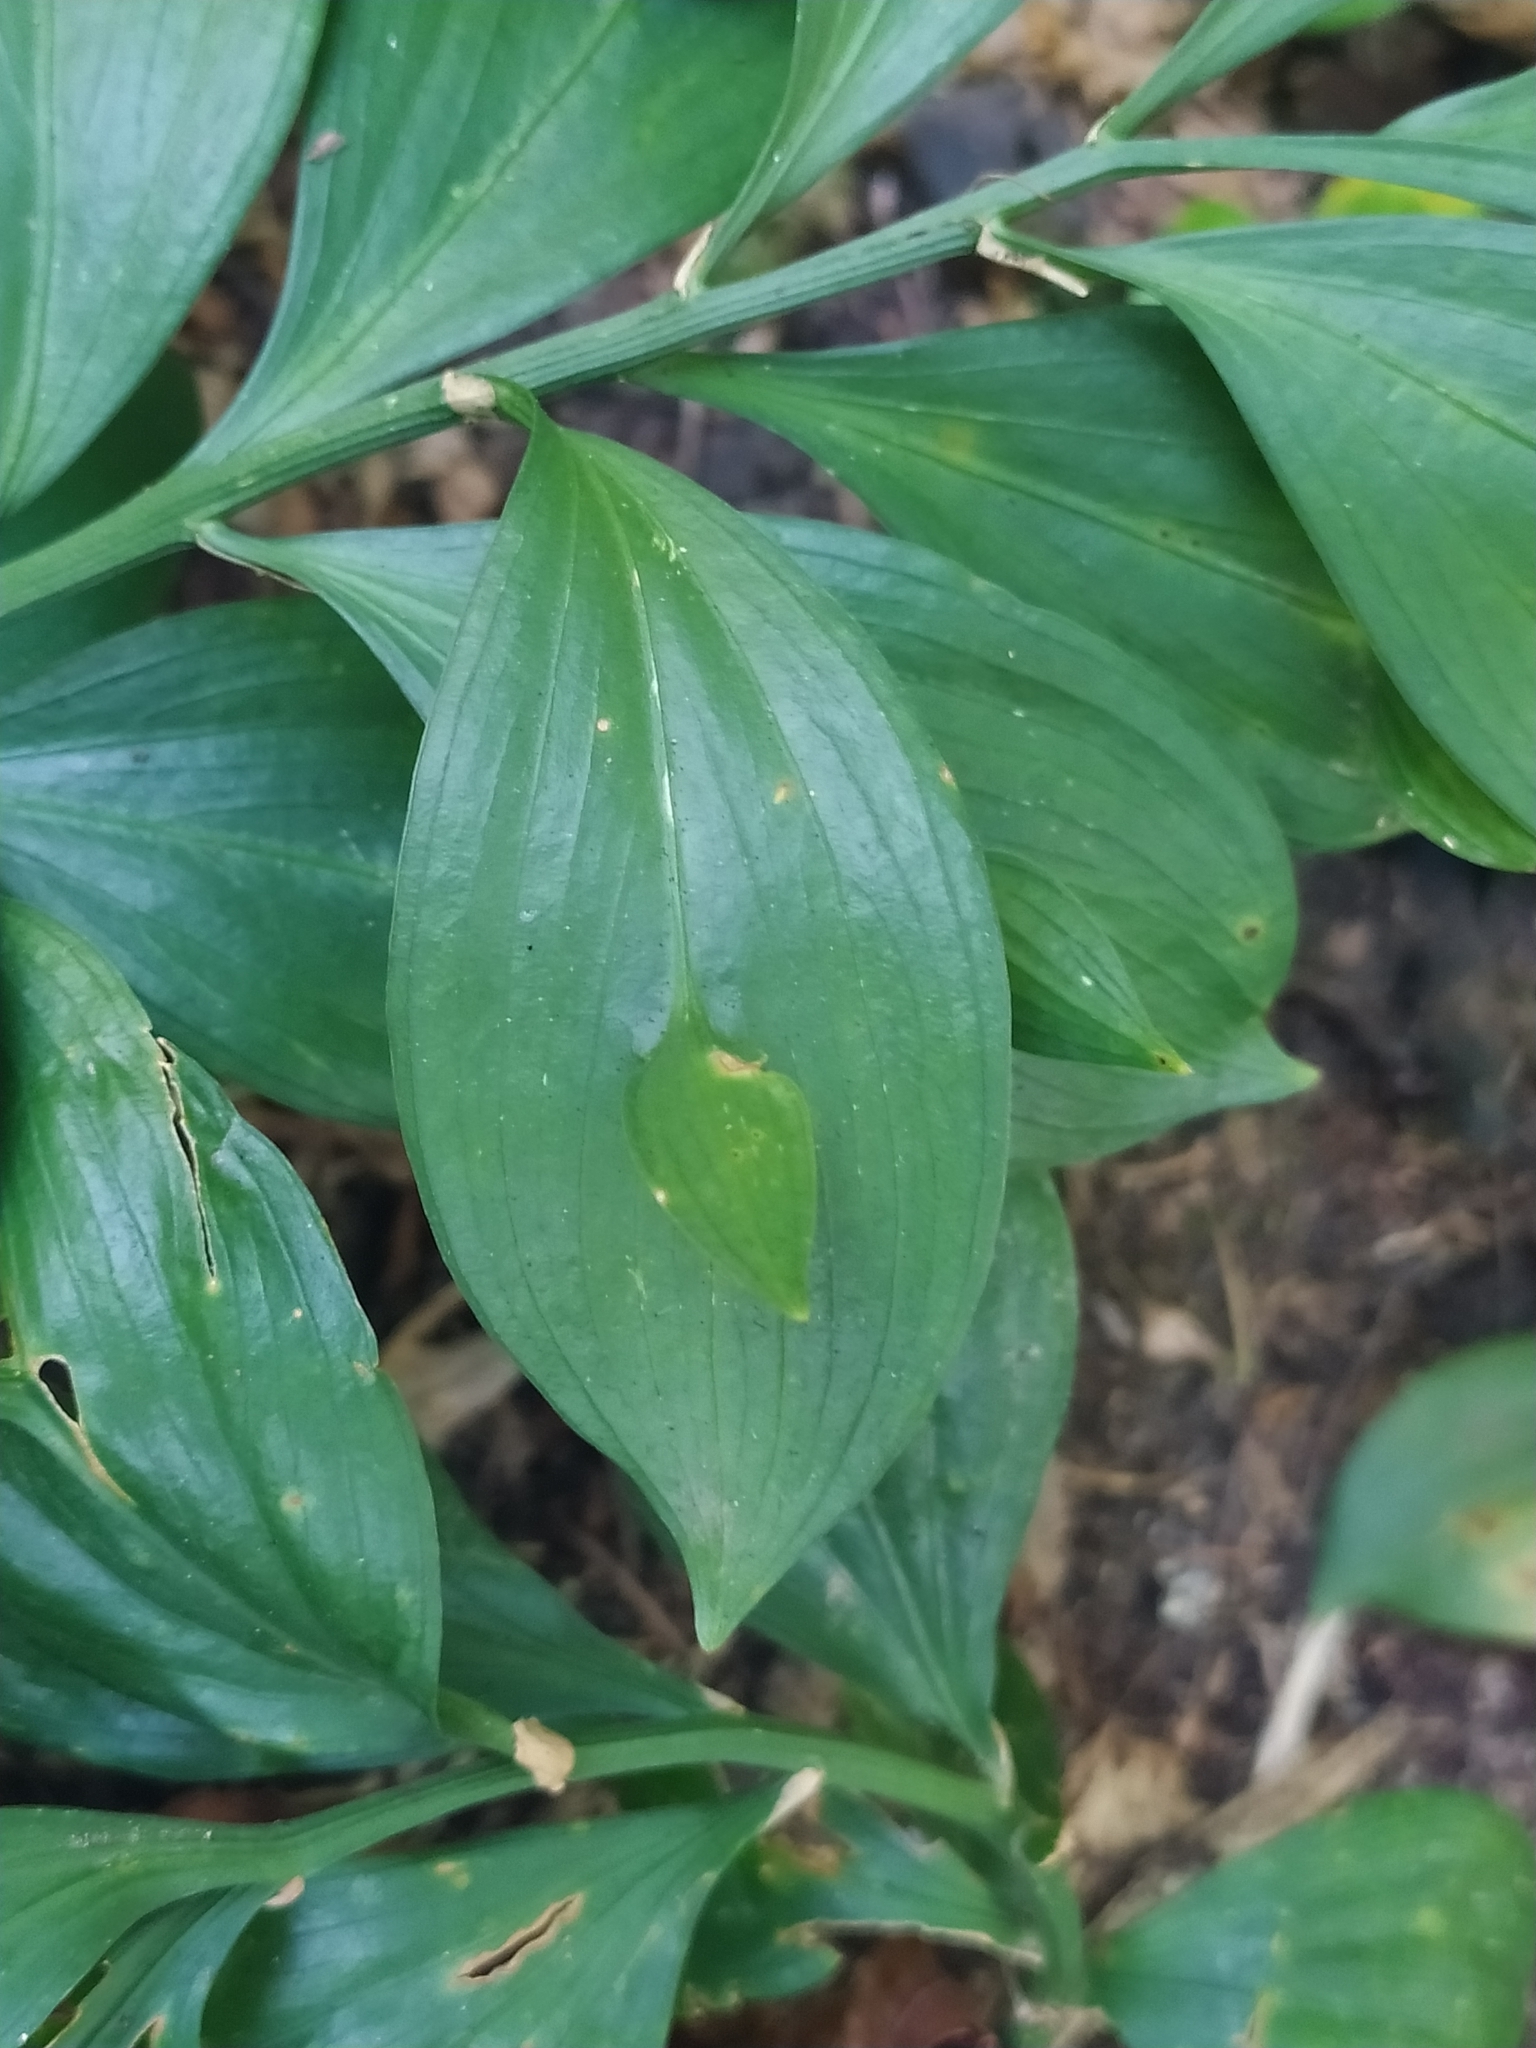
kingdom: Plantae
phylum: Tracheophyta
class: Liliopsida
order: Asparagales
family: Asparagaceae
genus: Ruscus
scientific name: Ruscus hypoglossum
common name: Spineless butcher's-broom
